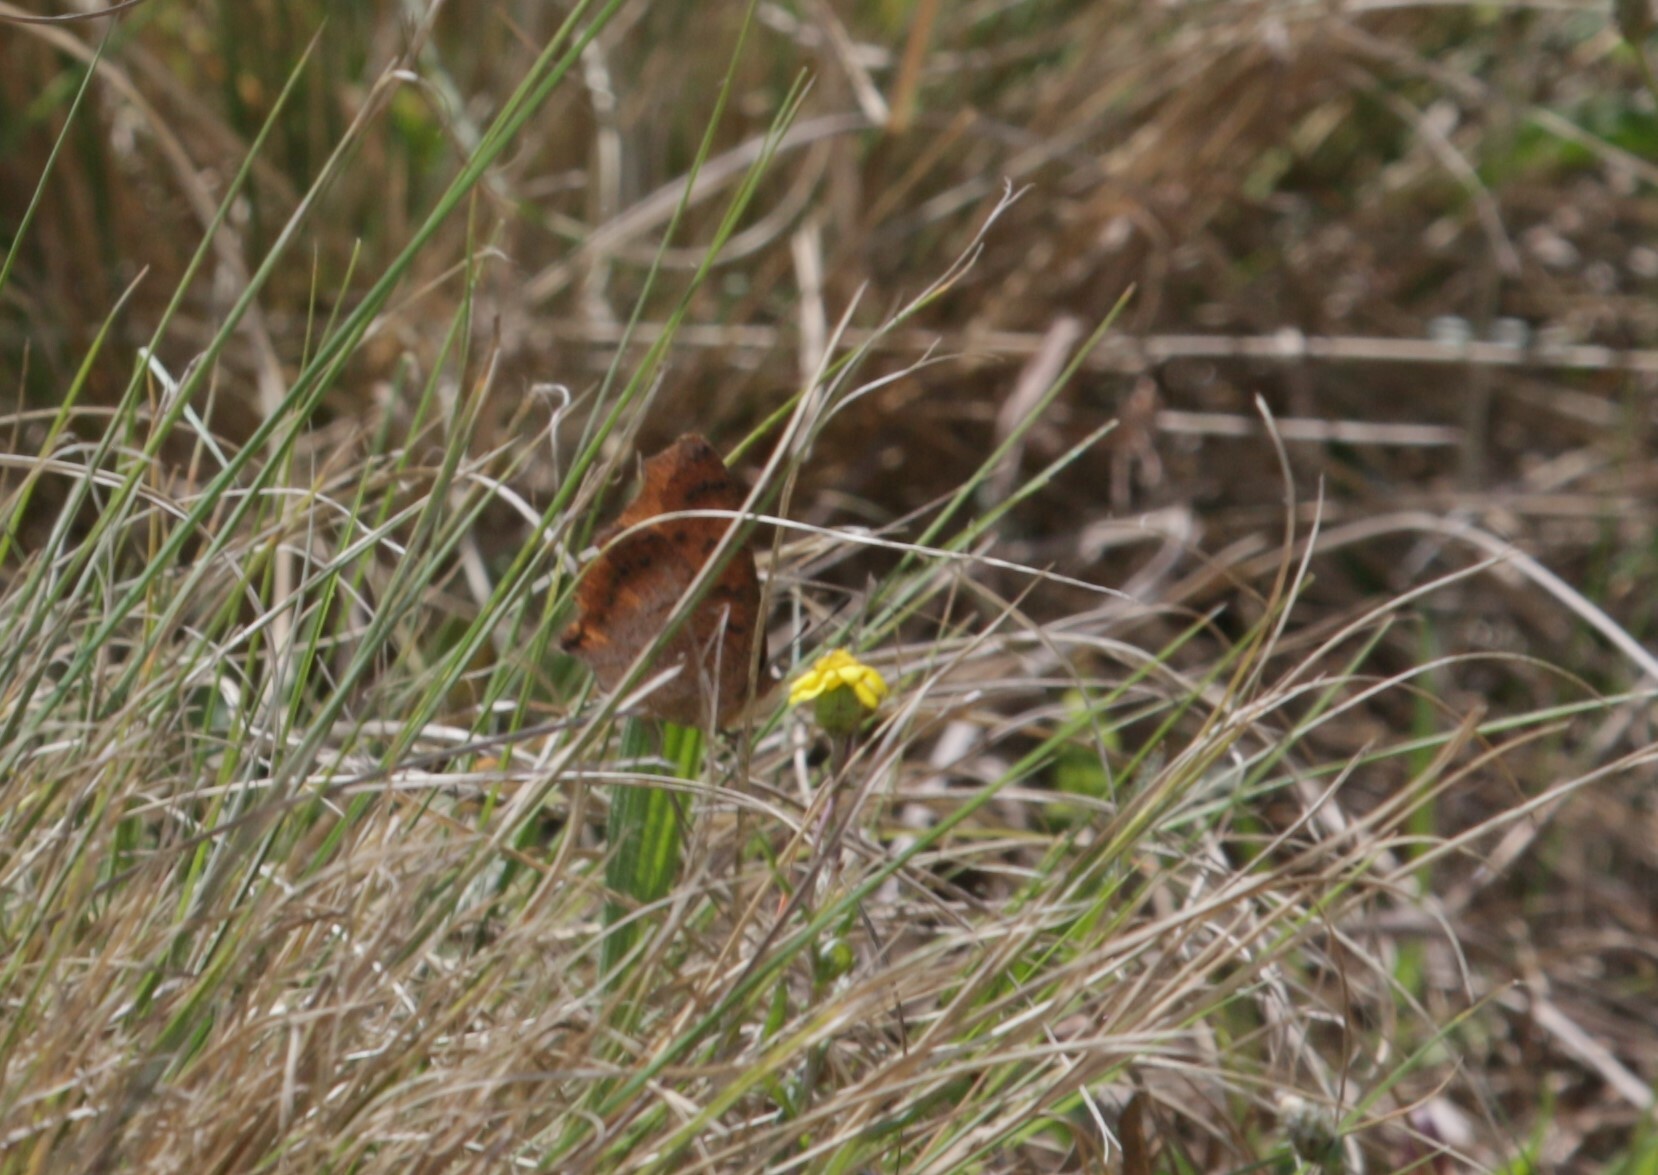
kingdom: Animalia
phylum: Arthropoda
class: Insecta
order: Lepidoptera
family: Nymphalidae
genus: Catacroptera
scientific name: Catacroptera cloanthe
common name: Pirate
